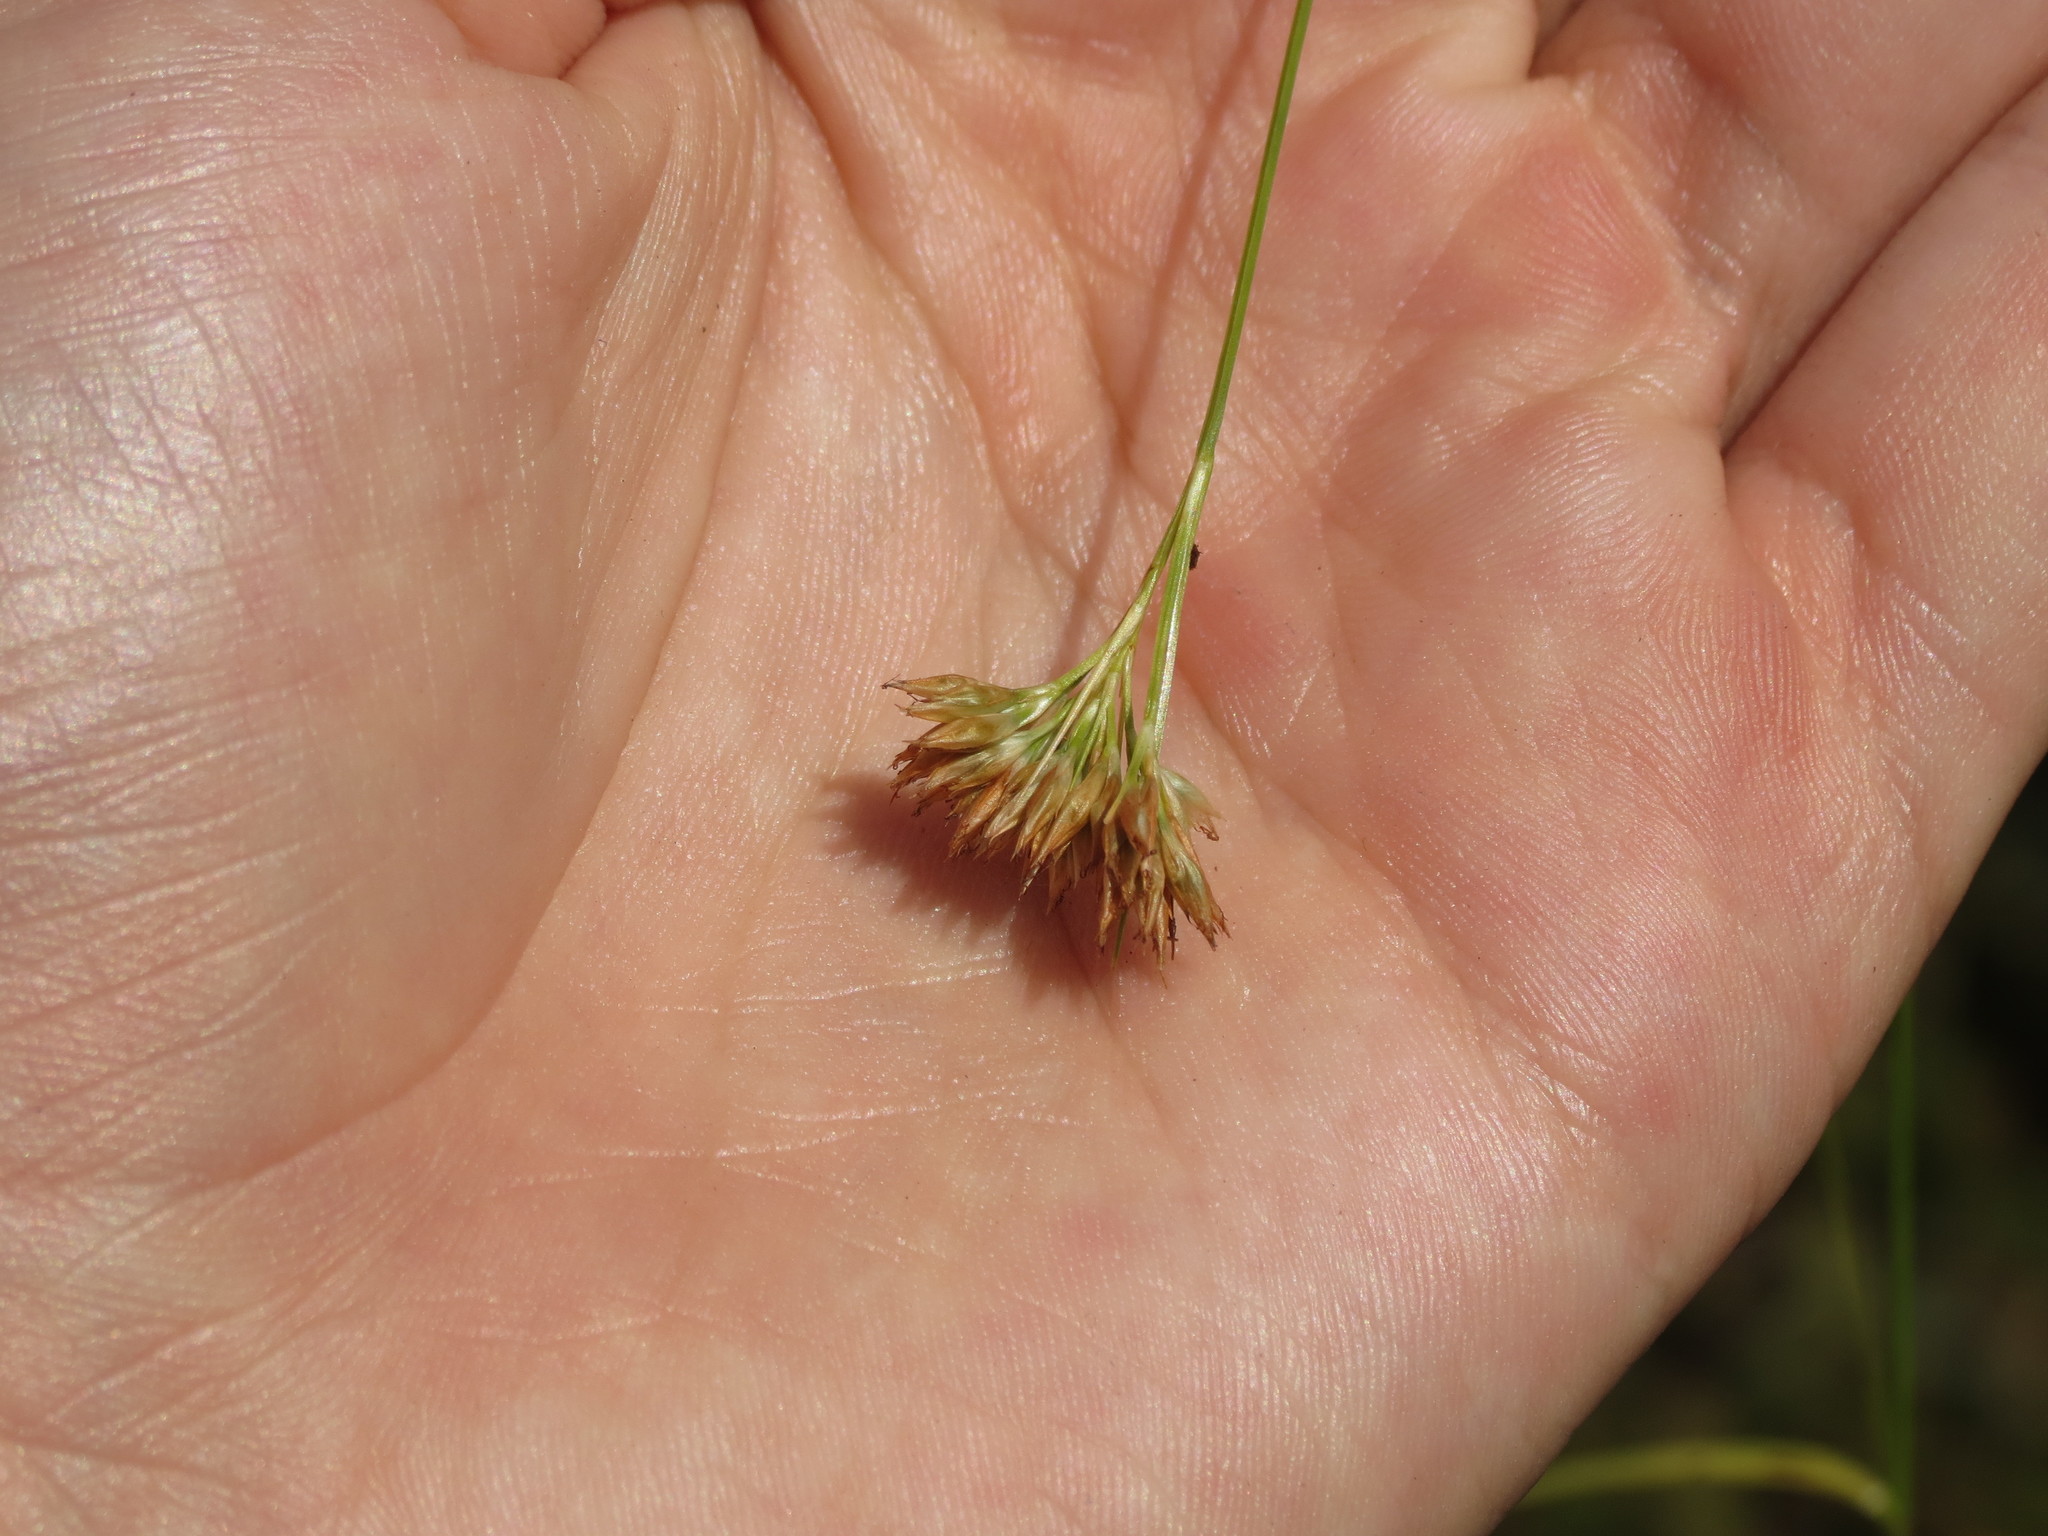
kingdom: Plantae
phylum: Tracheophyta
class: Liliopsida
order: Poales
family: Cyperaceae
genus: Rhynchospora
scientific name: Rhynchospora alba
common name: White beak-sedge
